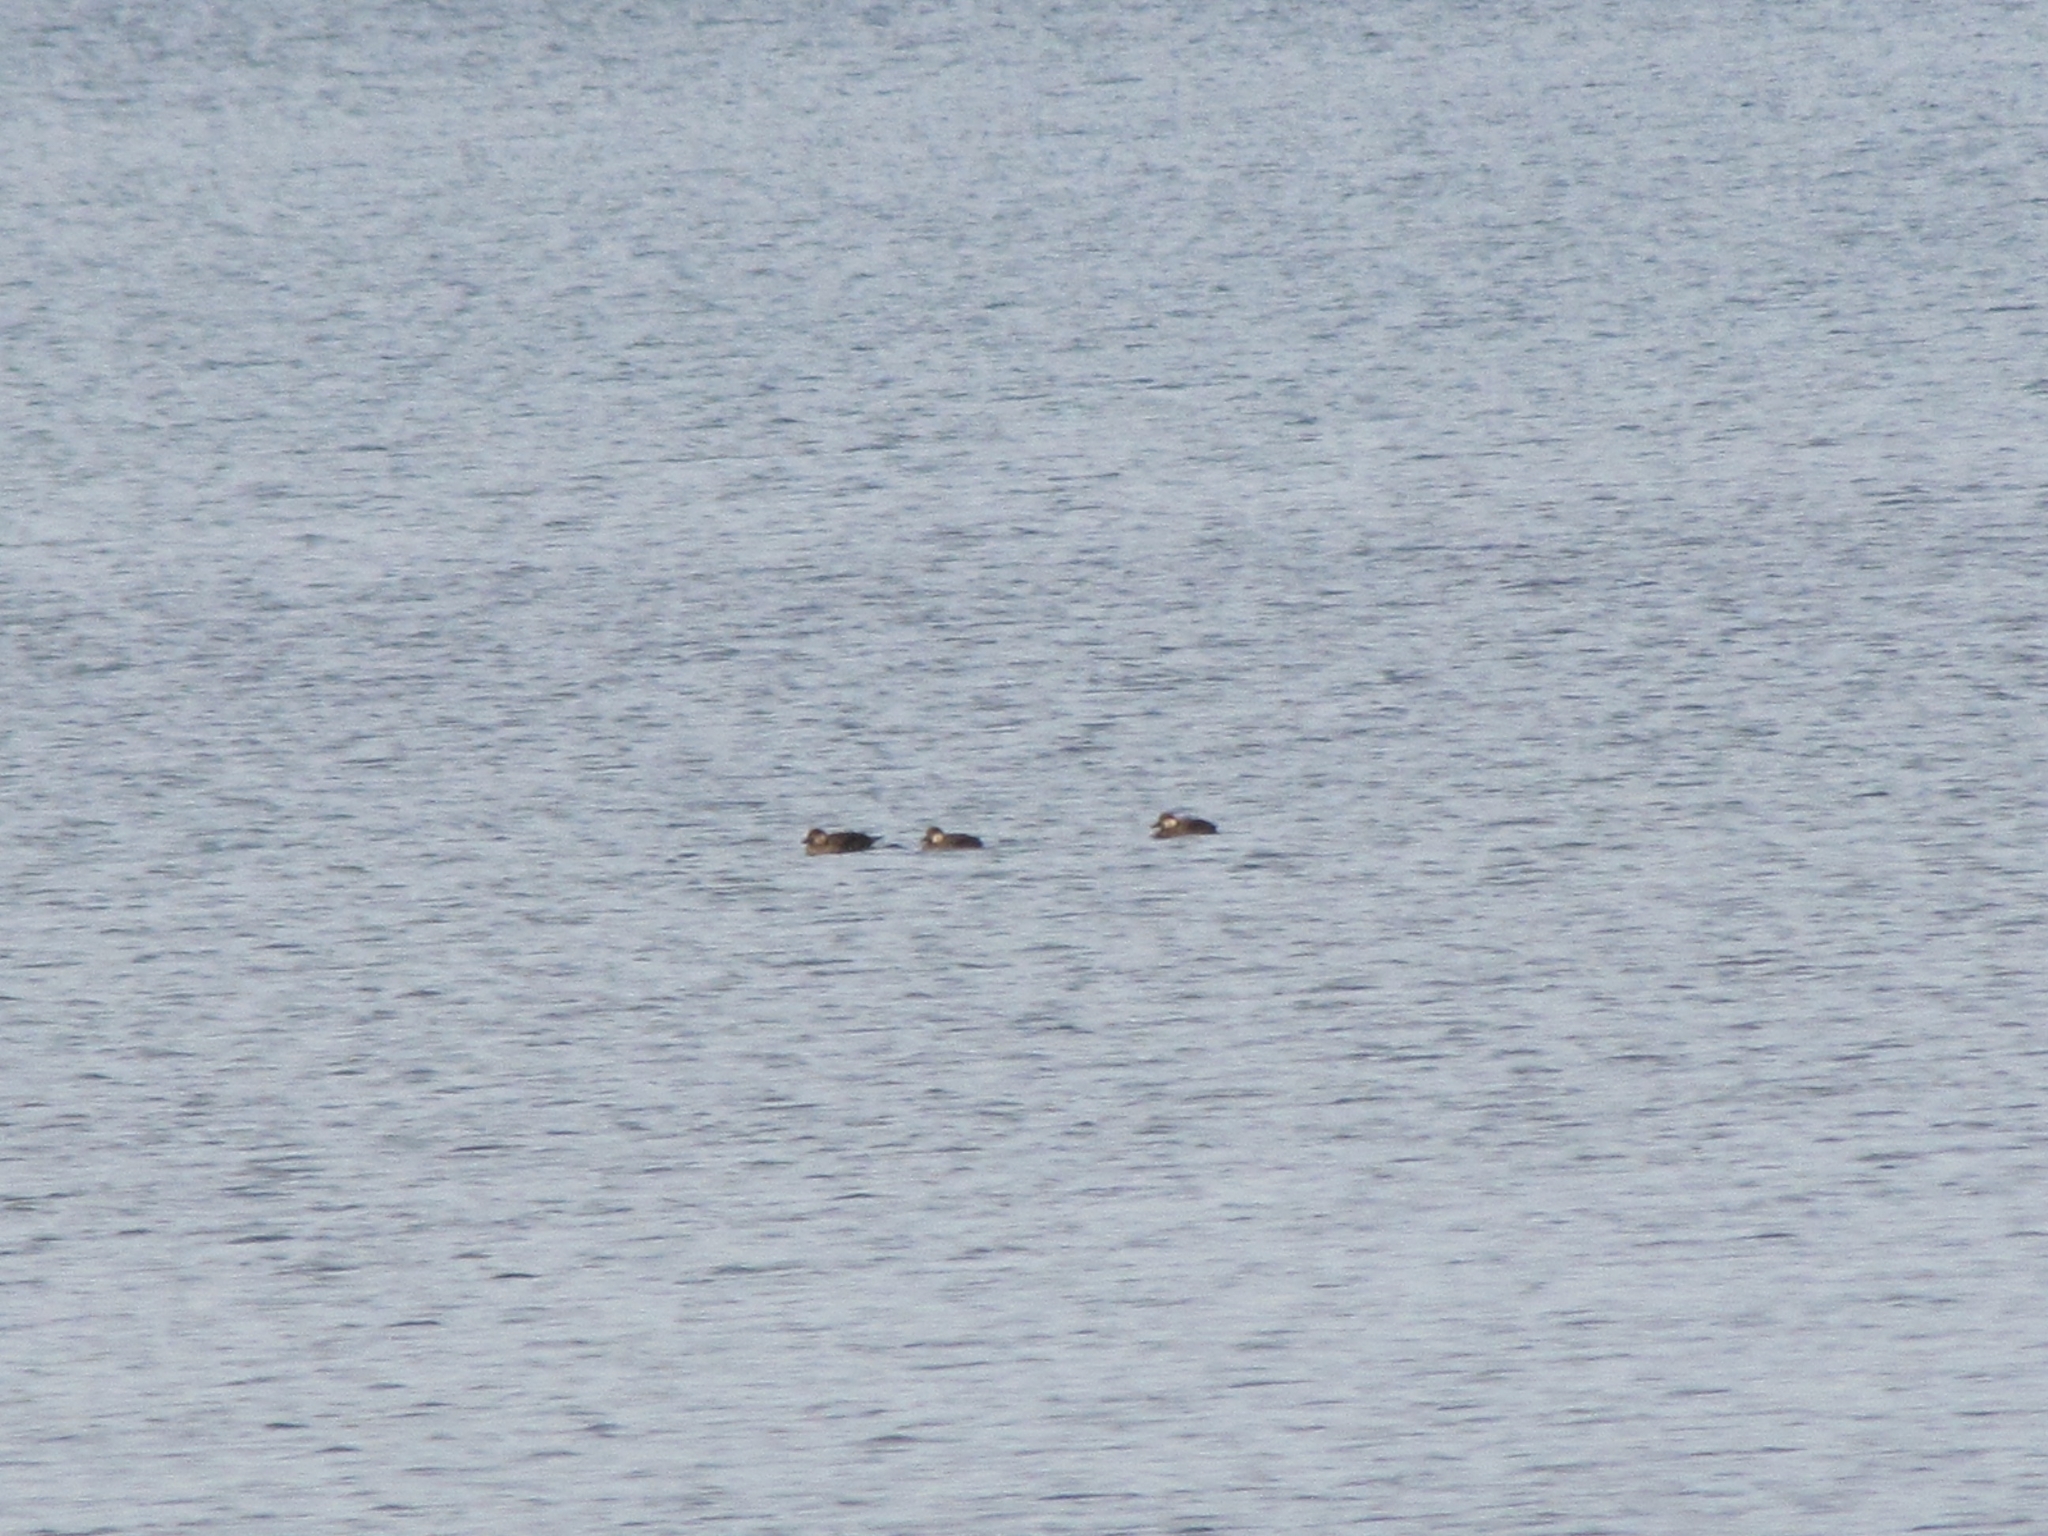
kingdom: Animalia
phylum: Chordata
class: Aves
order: Anseriformes
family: Anatidae
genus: Melanitta
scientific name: Melanitta americana
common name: Black scoter
